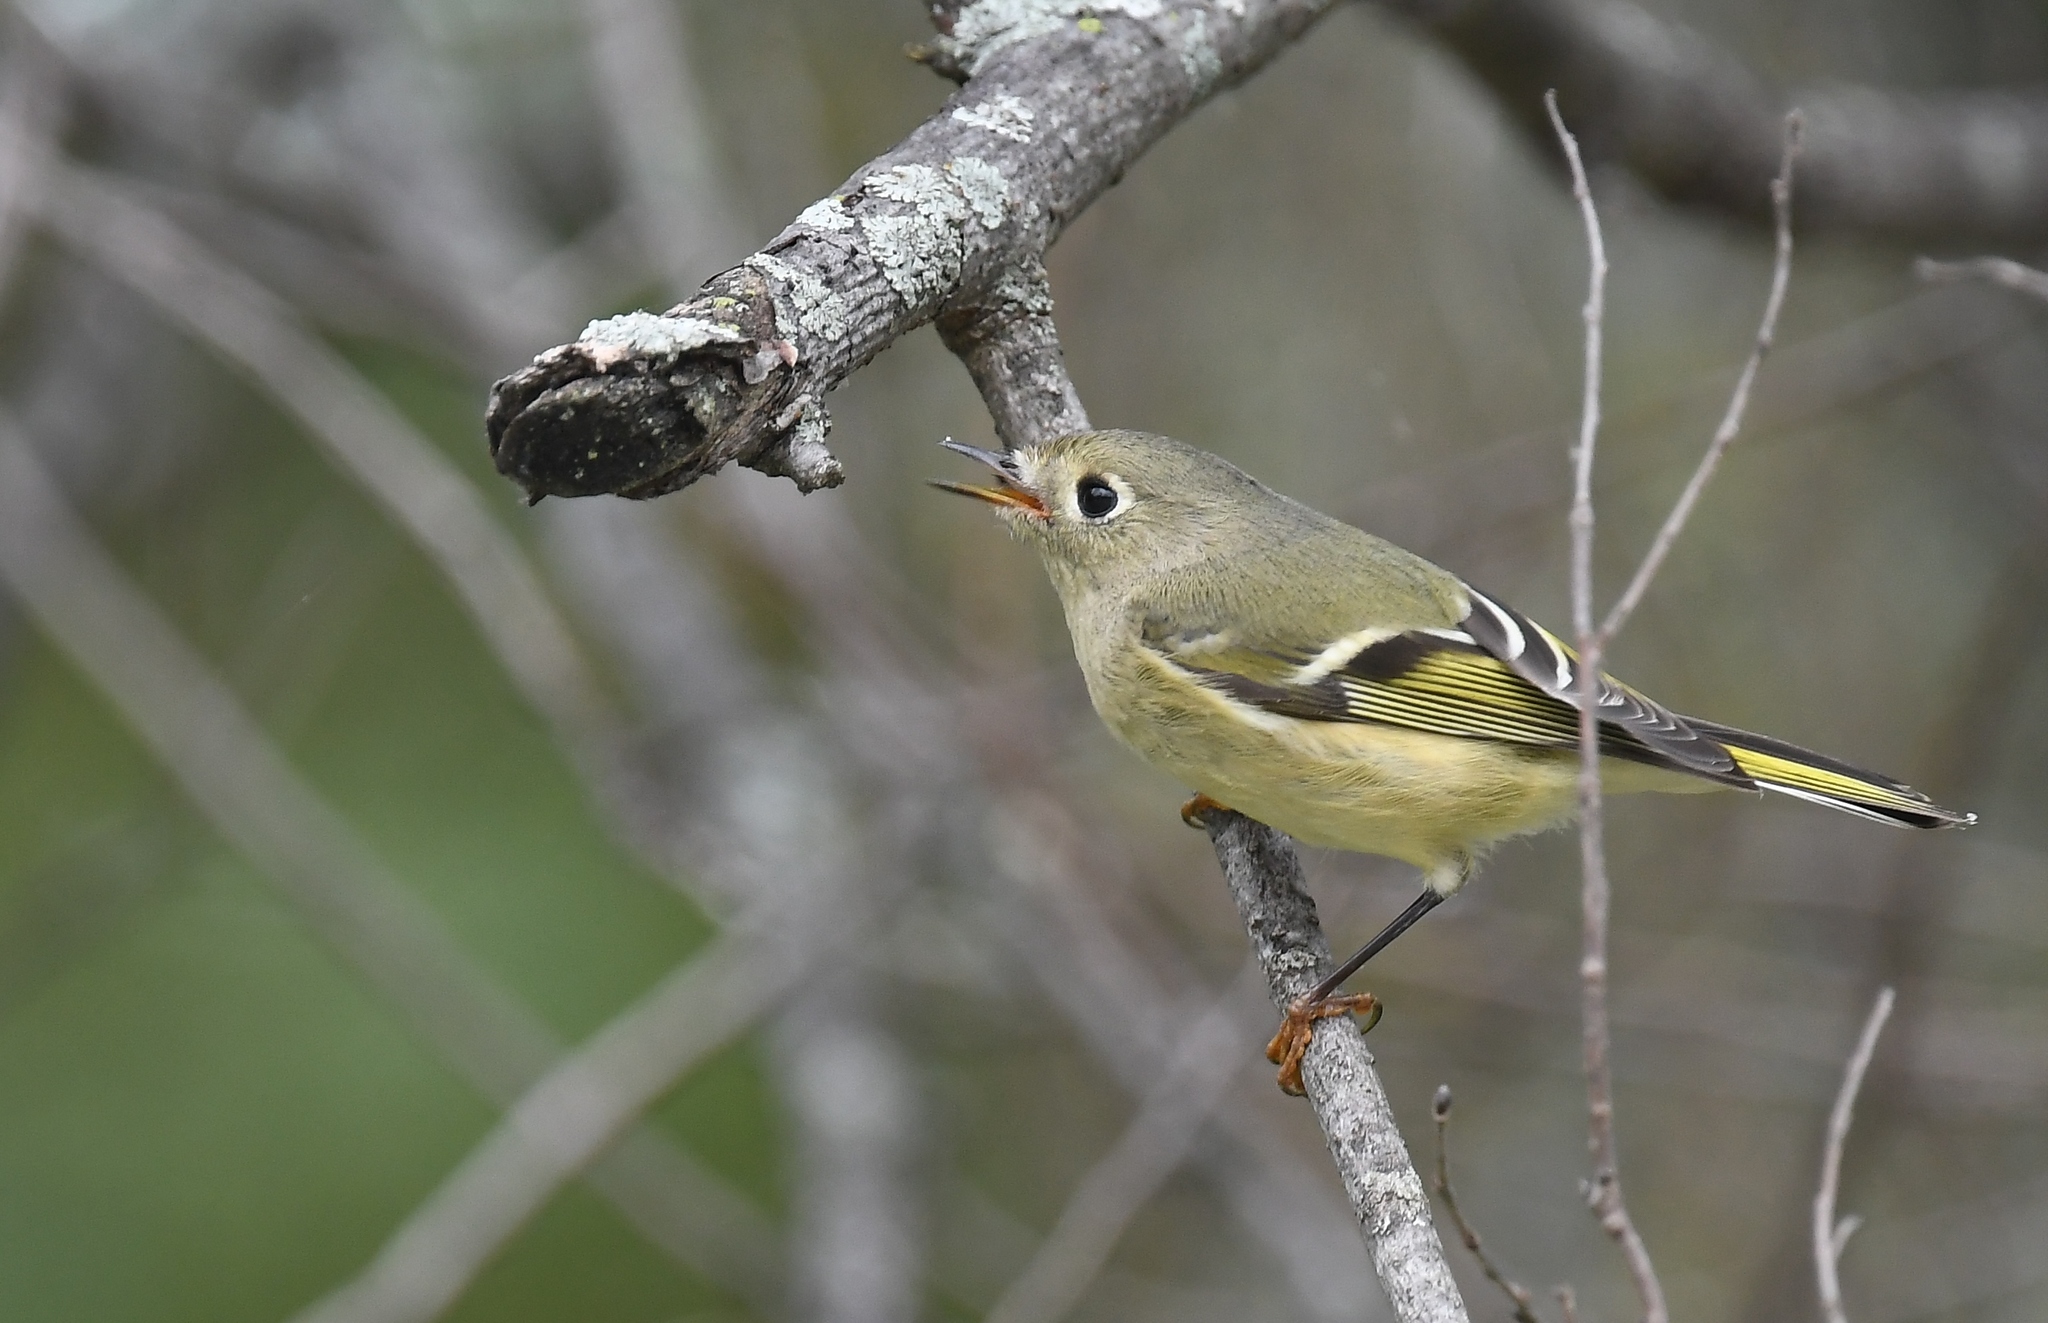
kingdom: Animalia
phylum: Chordata
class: Aves
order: Passeriformes
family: Regulidae
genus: Regulus
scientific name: Regulus calendula
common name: Ruby-crowned kinglet
